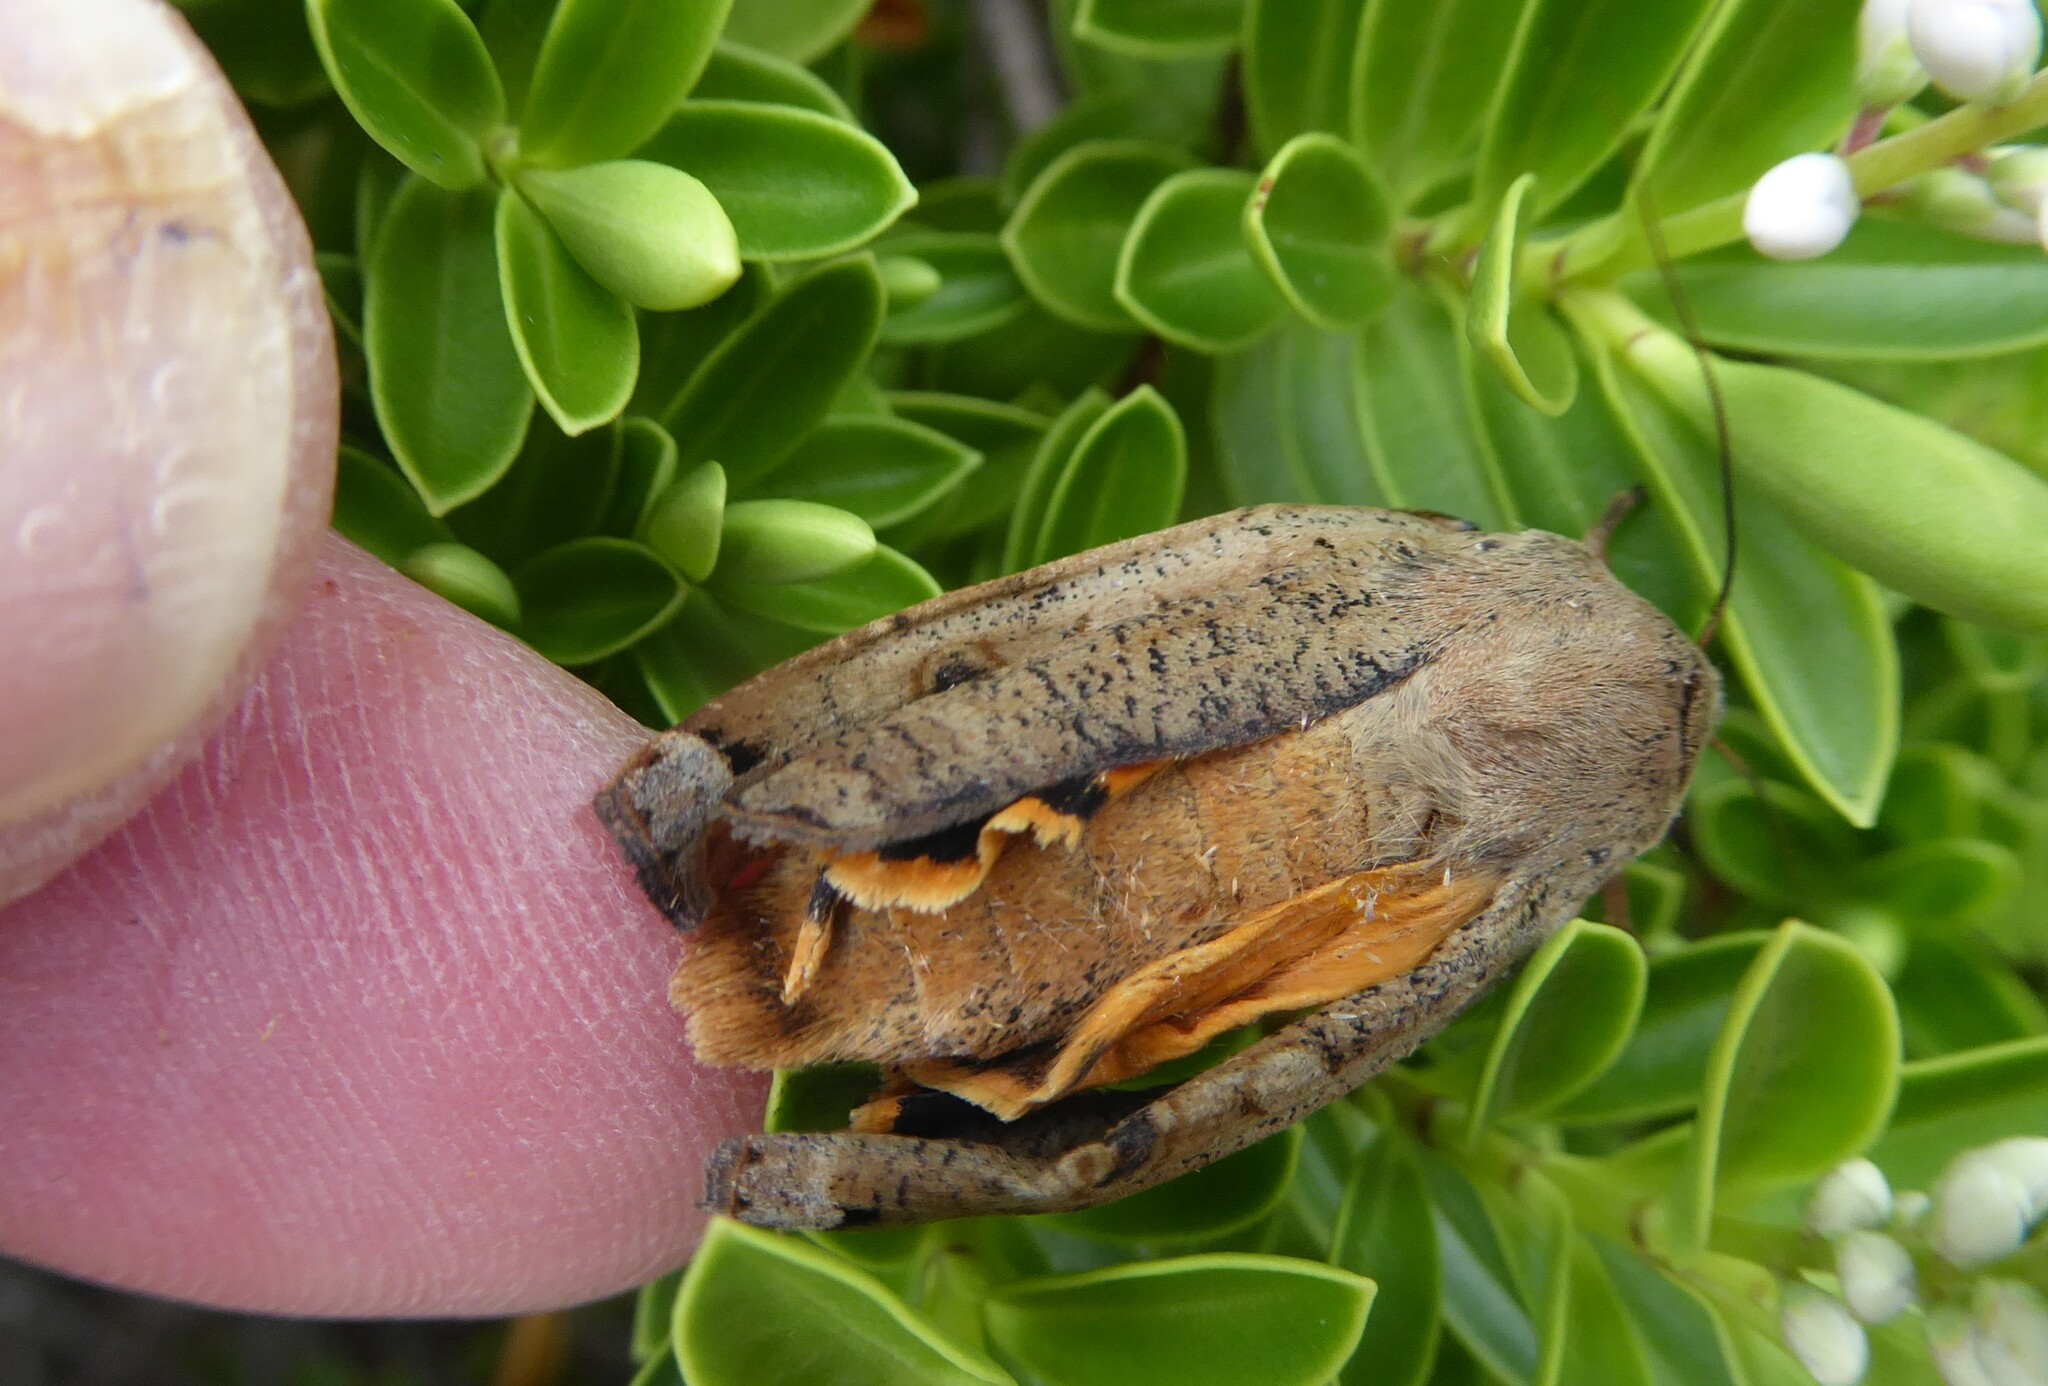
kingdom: Animalia
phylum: Arthropoda
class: Insecta
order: Lepidoptera
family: Noctuidae
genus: Noctua
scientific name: Noctua pronuba
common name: Large yellow underwing
